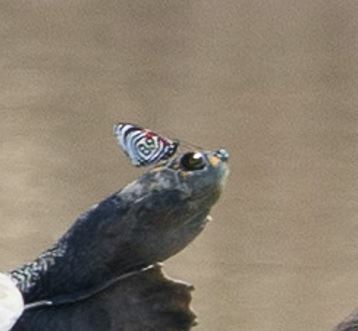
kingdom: Animalia
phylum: Arthropoda
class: Insecta
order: Lepidoptera
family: Nymphalidae
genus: Diaethria
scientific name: Diaethria
